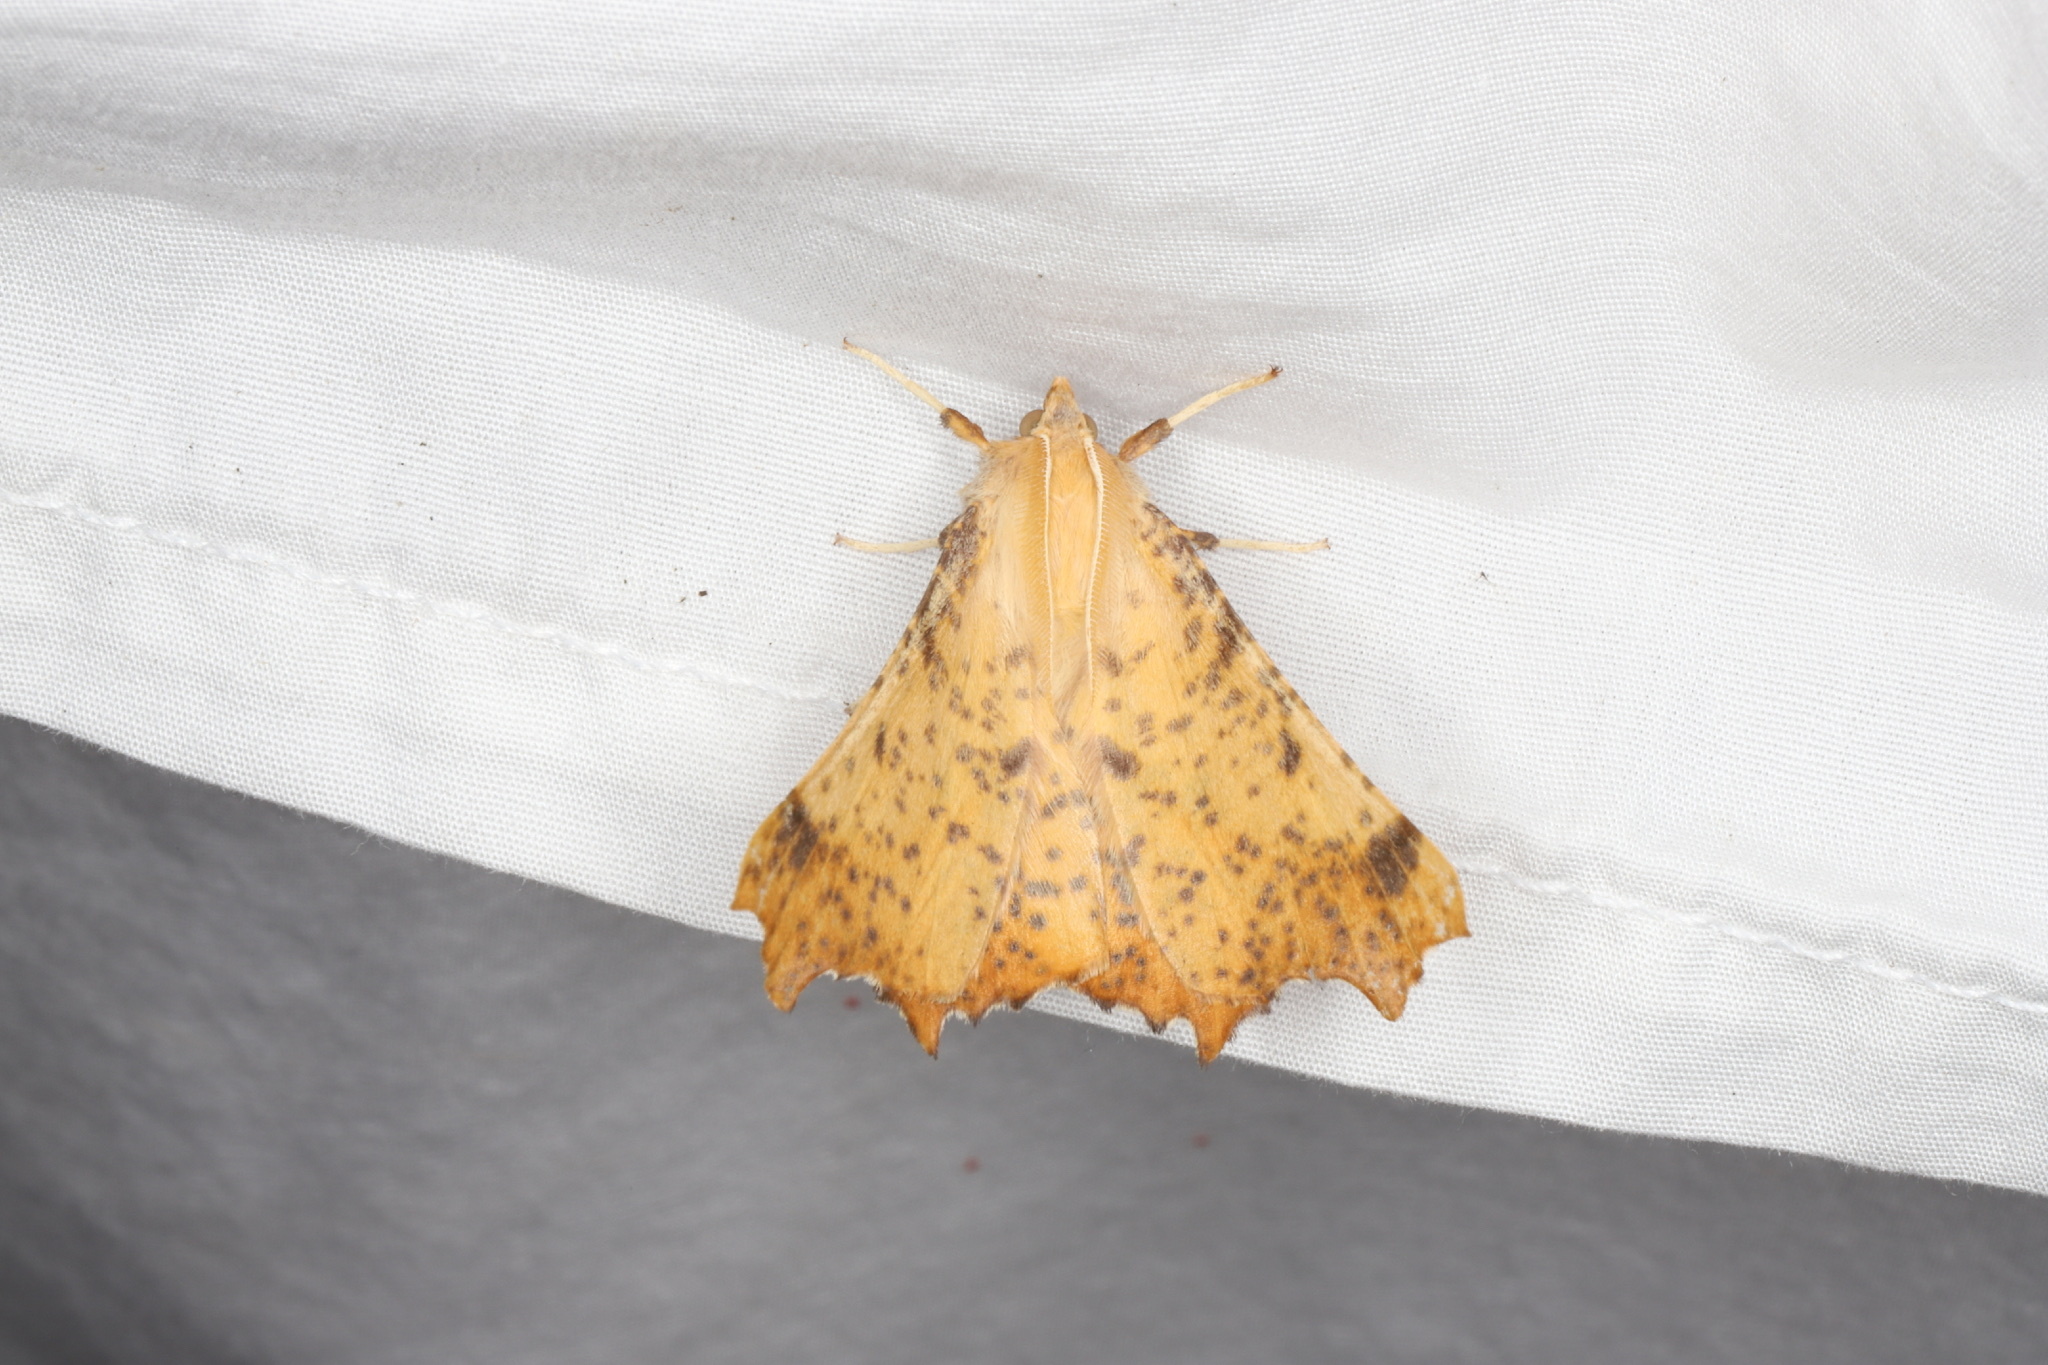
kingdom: Animalia
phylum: Arthropoda
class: Insecta
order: Lepidoptera
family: Geometridae
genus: Ennomos
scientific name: Ennomos magnaria
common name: Maple spanworm
